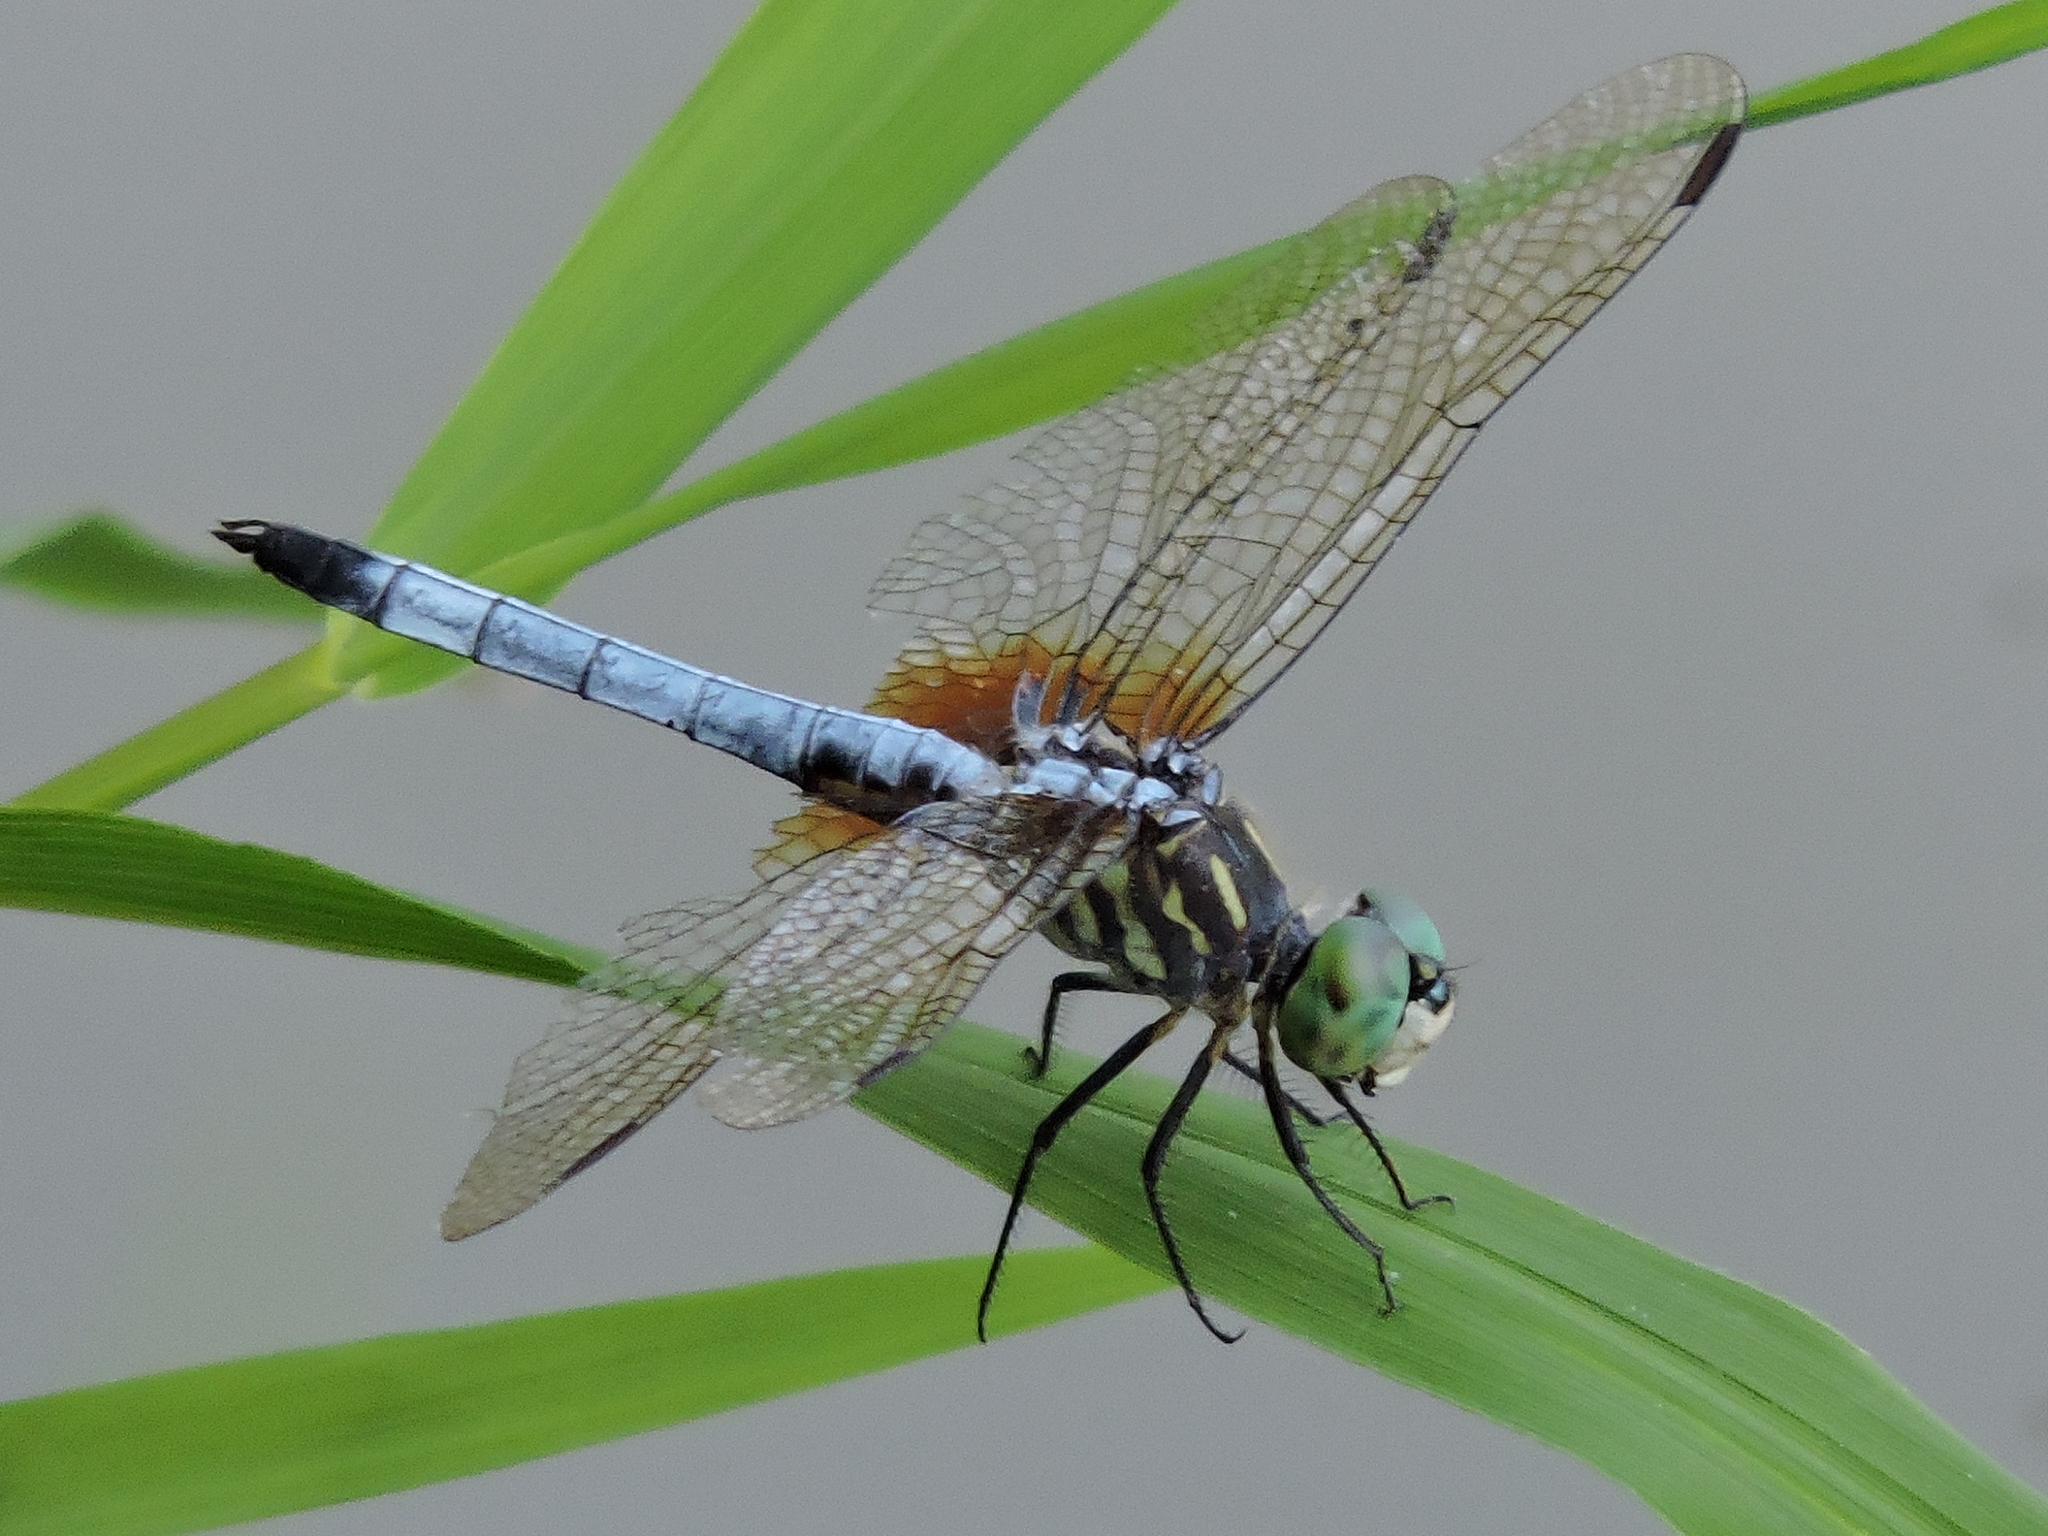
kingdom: Animalia
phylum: Arthropoda
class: Insecta
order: Odonata
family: Libellulidae
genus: Pachydiplax
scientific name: Pachydiplax longipennis
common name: Blue dasher
